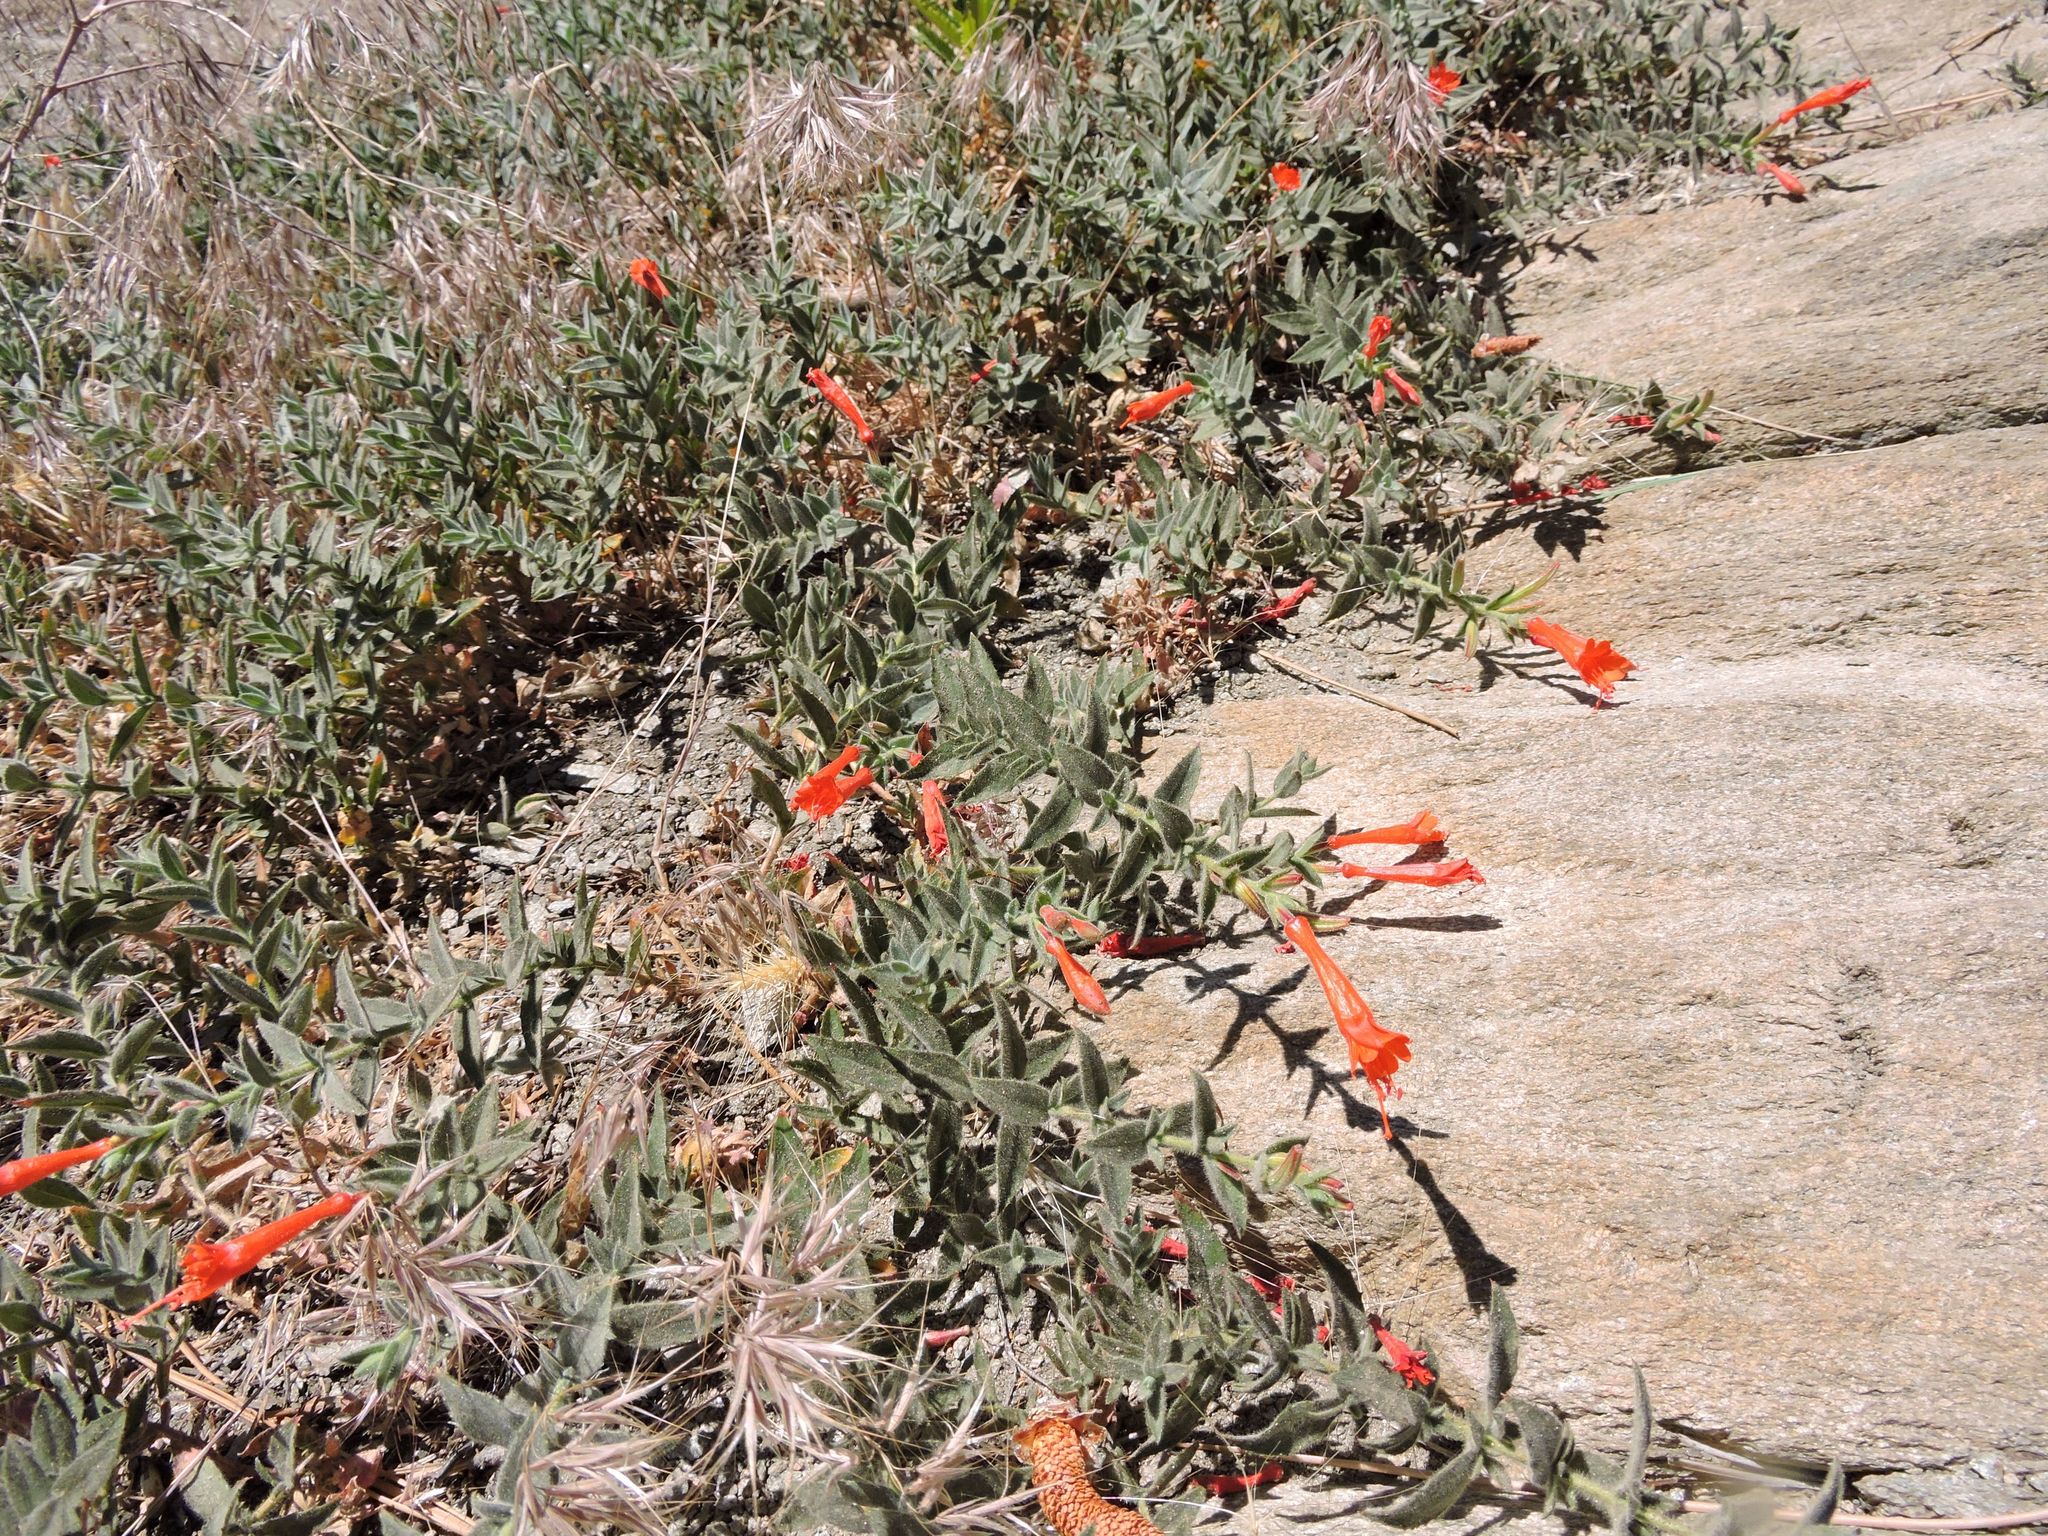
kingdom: Plantae
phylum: Tracheophyta
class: Magnoliopsida
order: Myrtales
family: Onagraceae
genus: Epilobium
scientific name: Epilobium canum
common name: California-fuchsia
